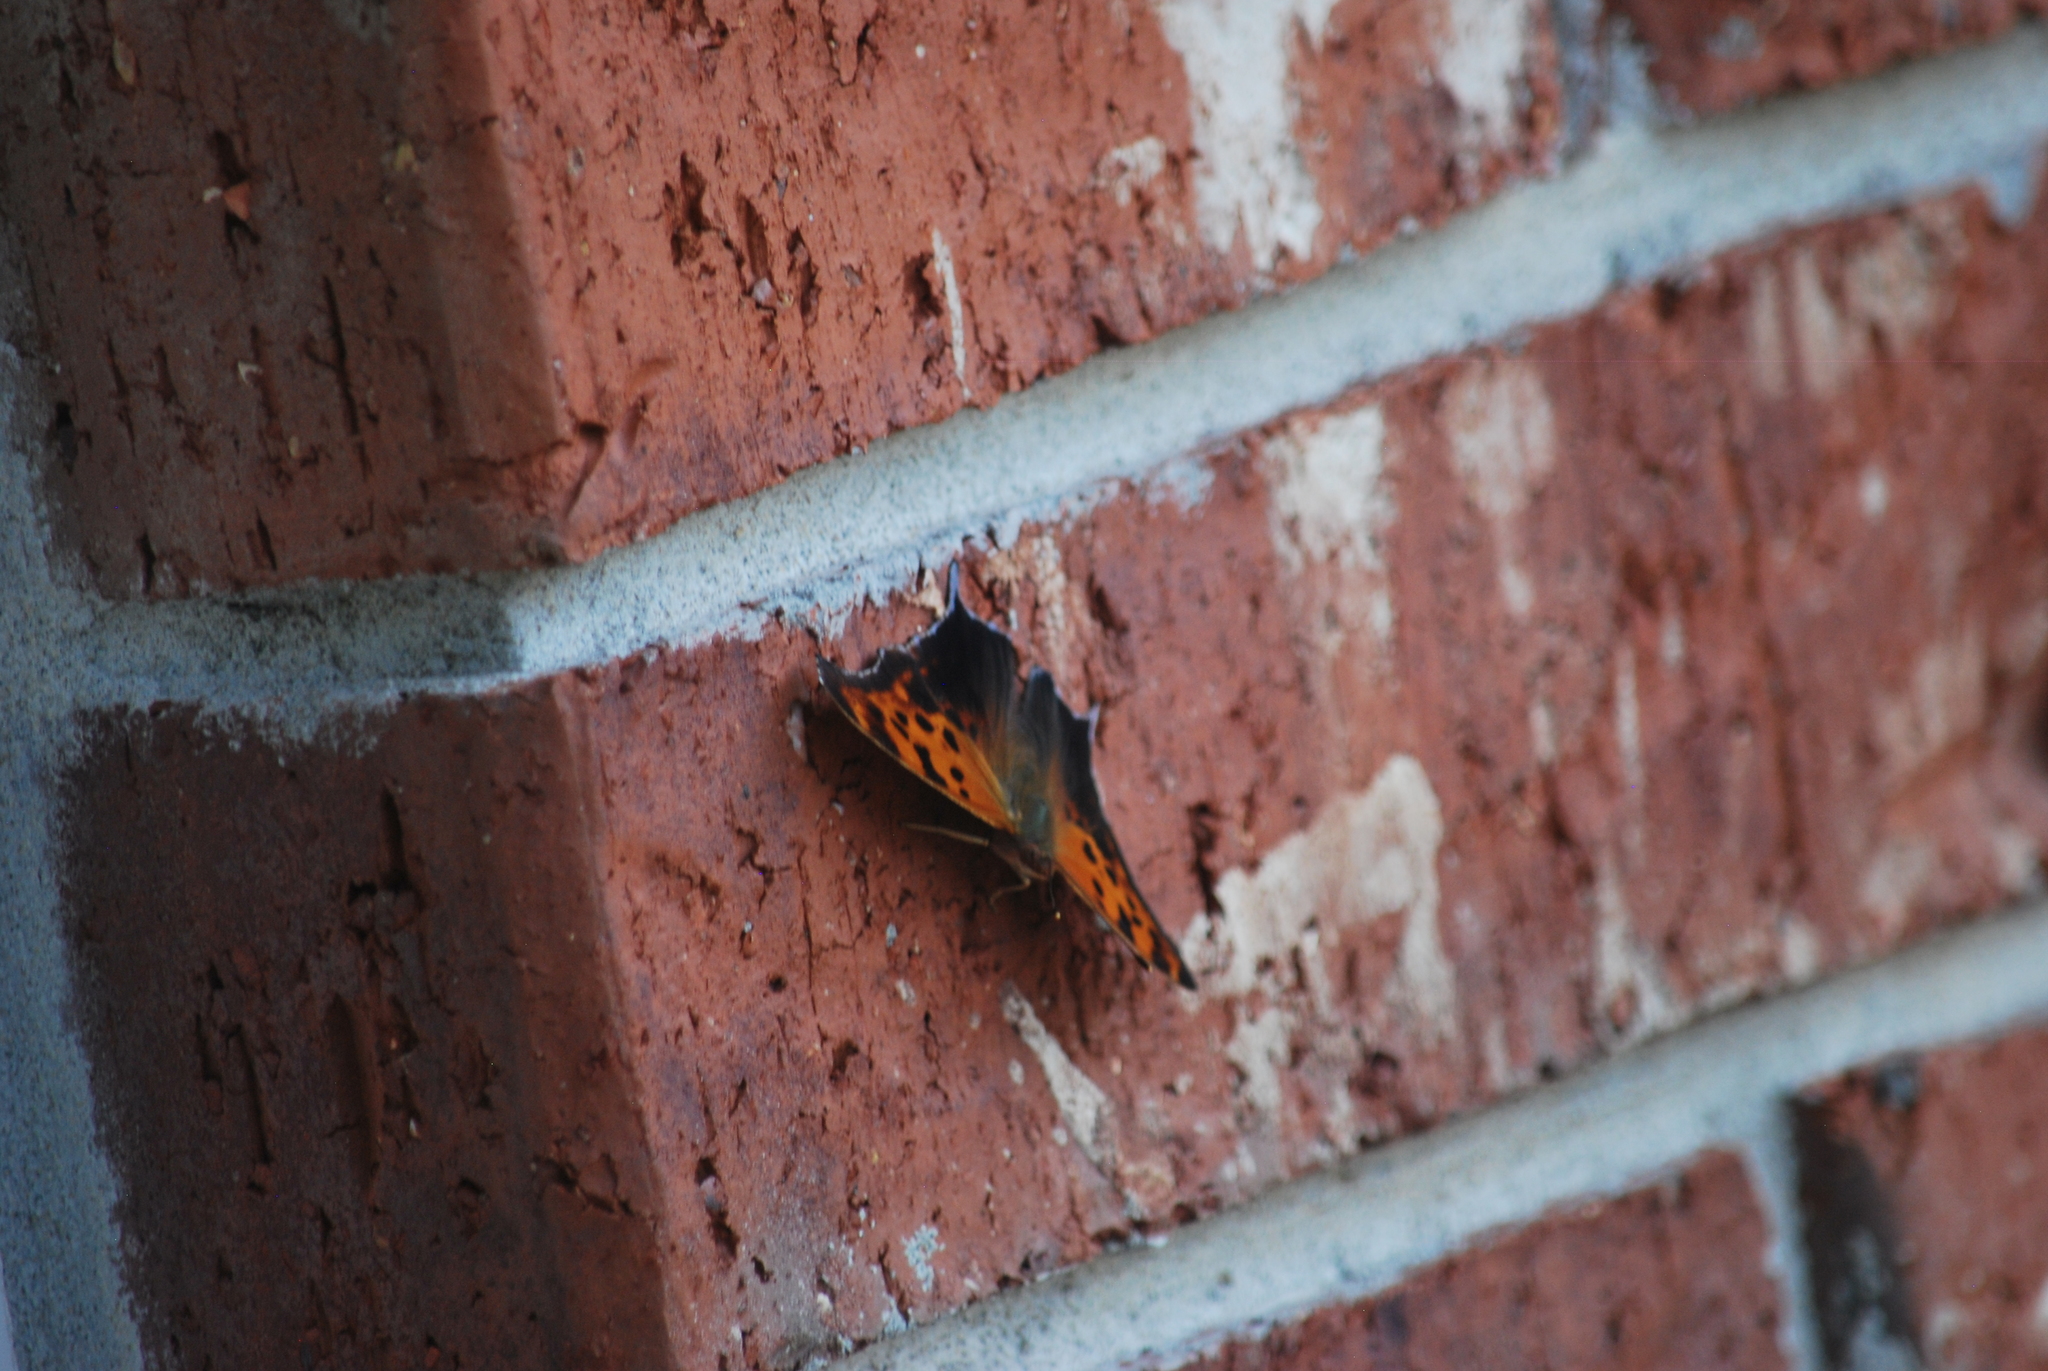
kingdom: Animalia
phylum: Arthropoda
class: Insecta
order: Lepidoptera
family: Nymphalidae
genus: Polygonia
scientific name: Polygonia interrogationis
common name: Question mark
